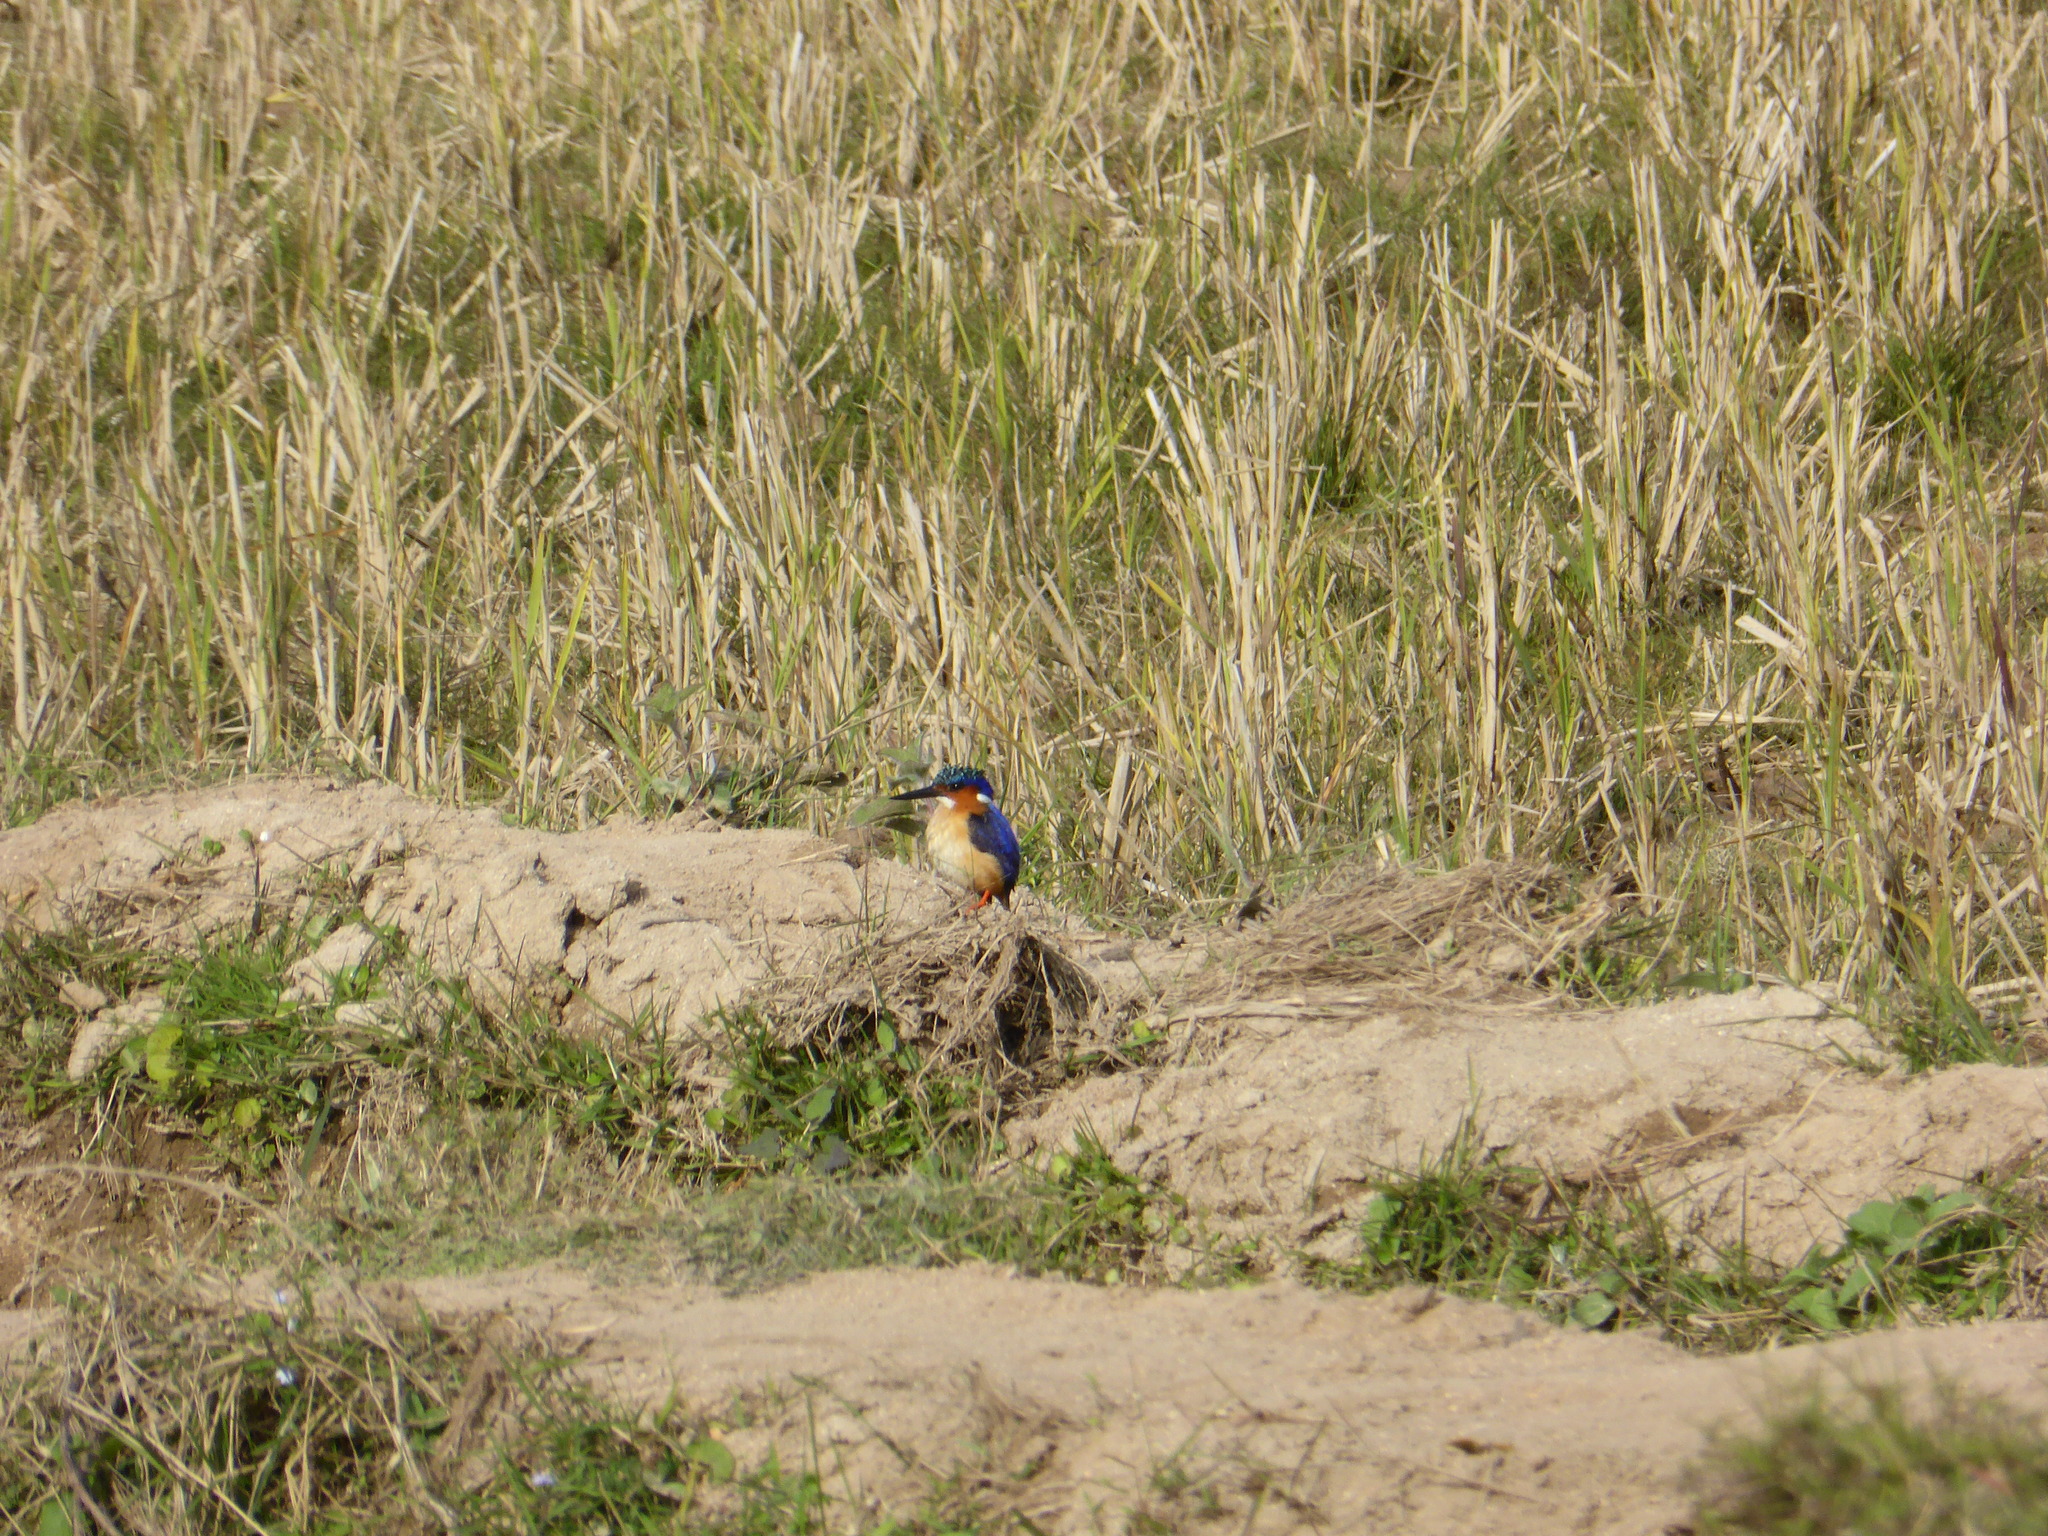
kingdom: Animalia
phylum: Chordata
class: Aves
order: Coraciiformes
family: Alcedinidae
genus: Corythornis
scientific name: Corythornis vintsioides
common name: Malagasy kingfisher
